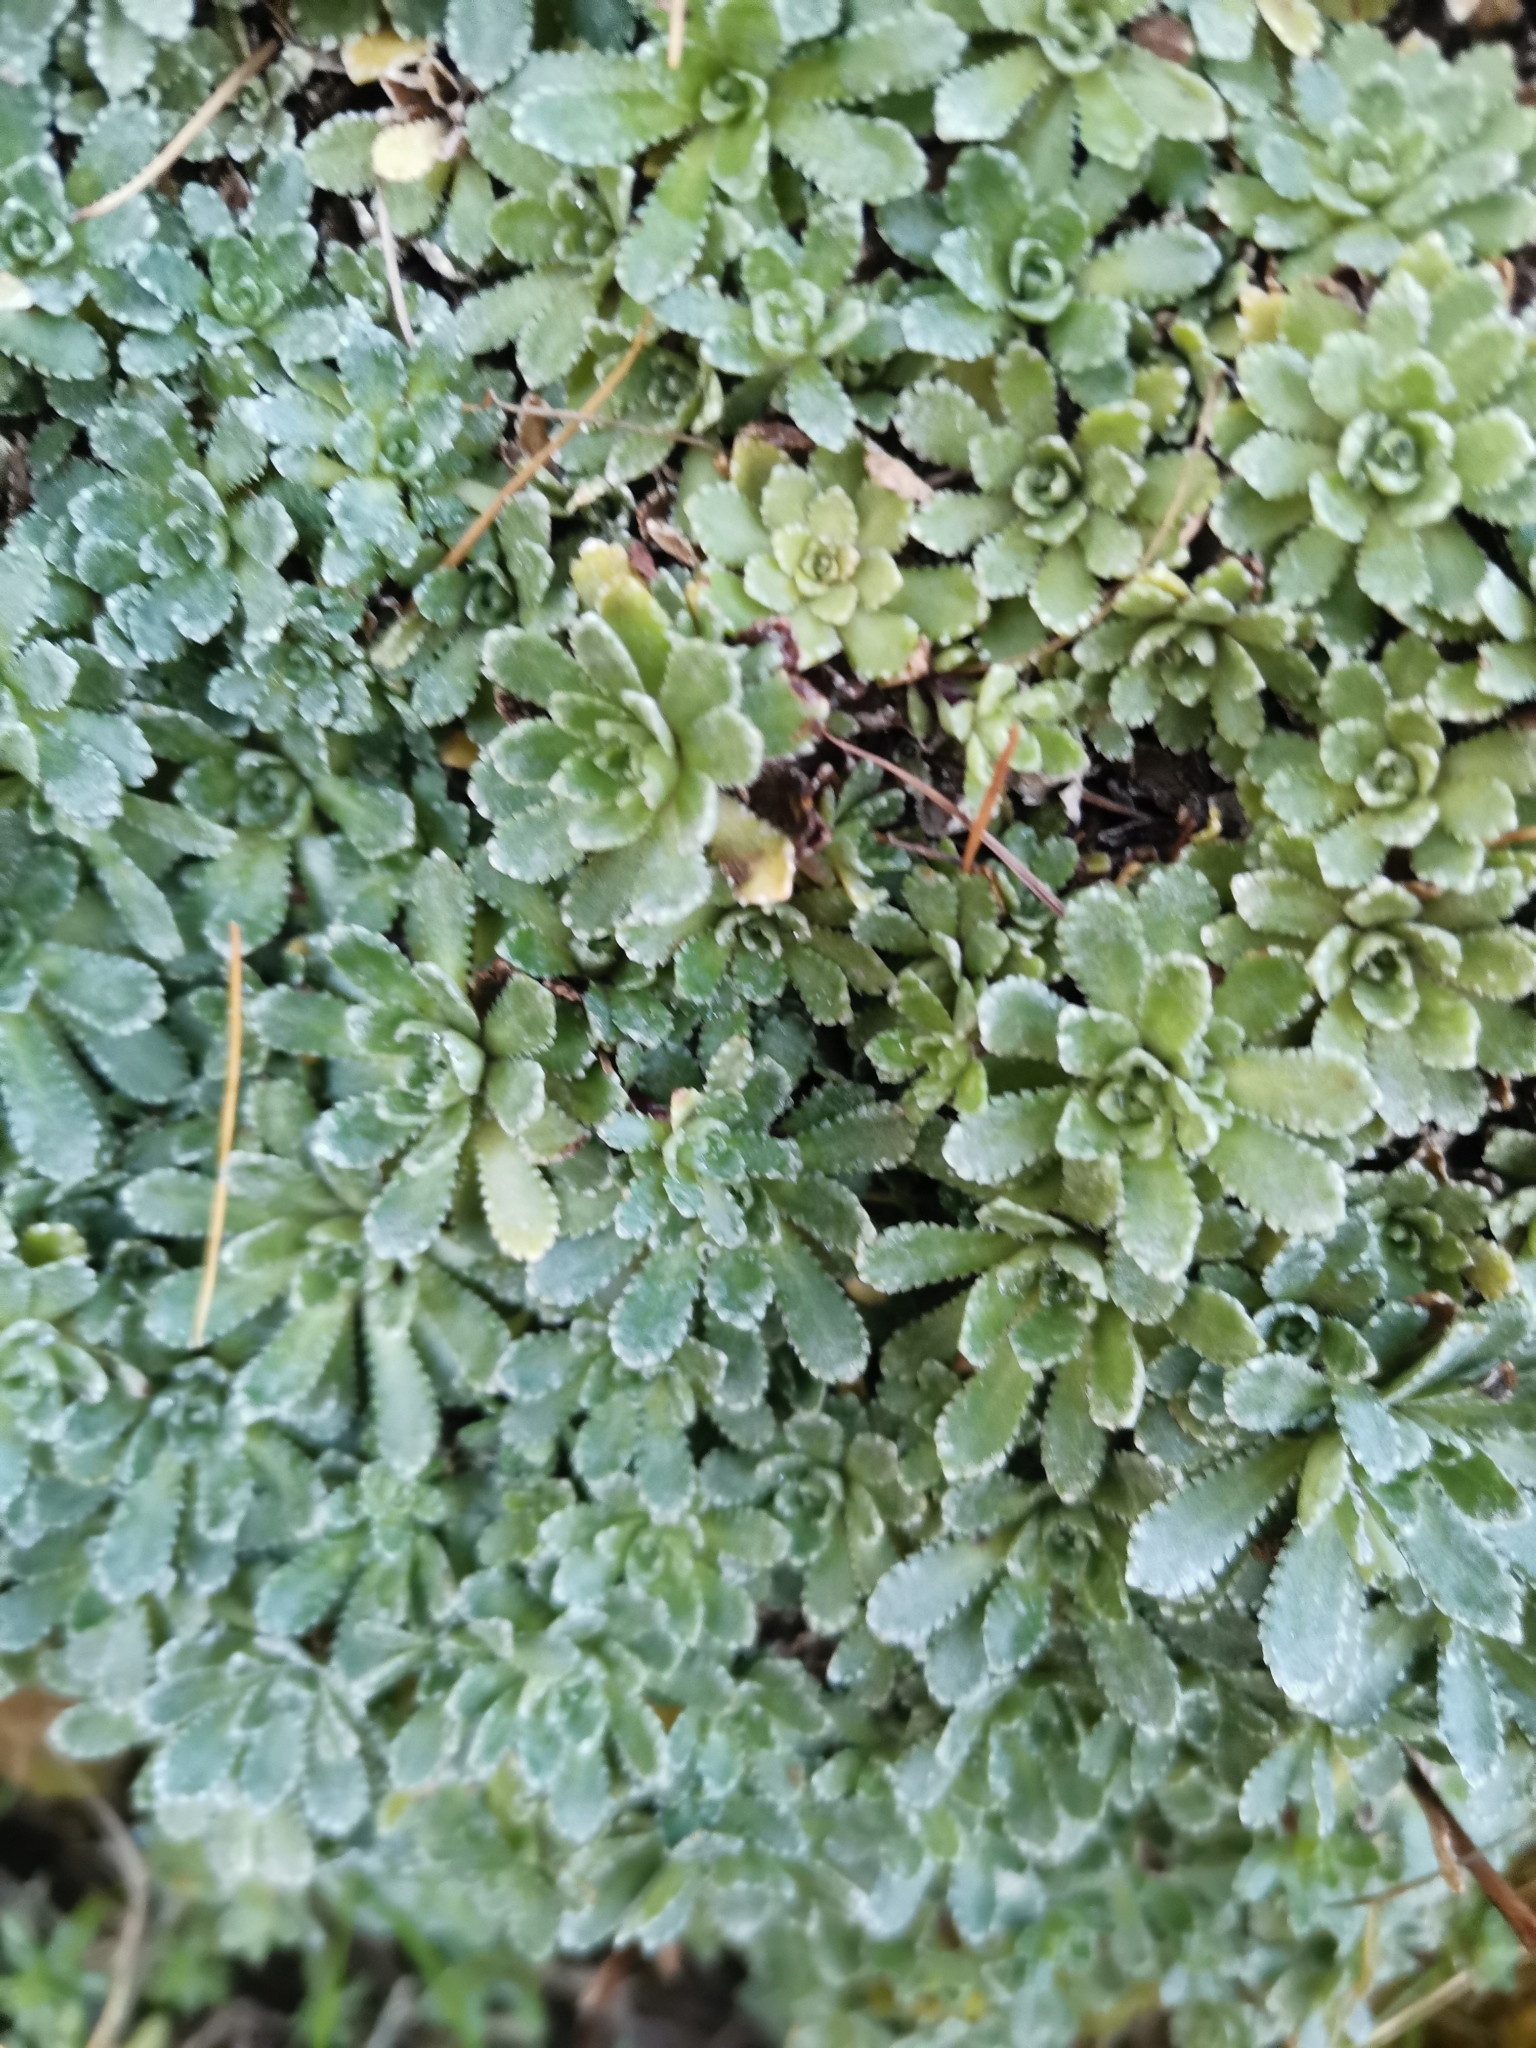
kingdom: Plantae
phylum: Tracheophyta
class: Magnoliopsida
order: Saxifragales
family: Saxifragaceae
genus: Saxifraga
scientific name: Saxifraga paniculata
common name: Livelong saxifrage
